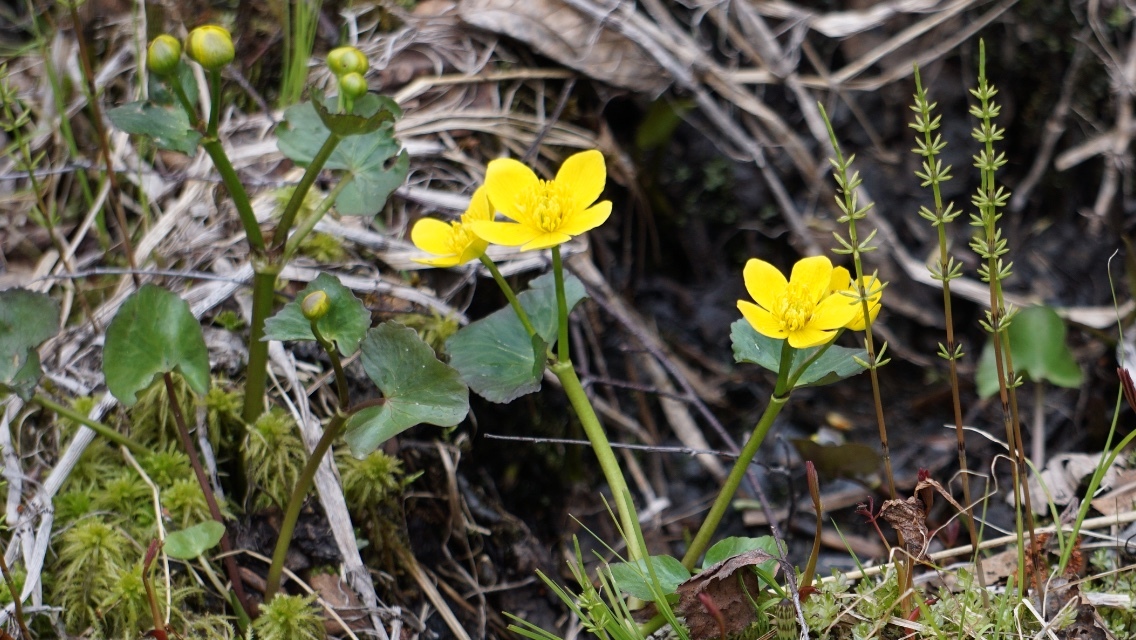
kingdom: Plantae
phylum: Tracheophyta
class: Magnoliopsida
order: Ranunculales
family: Ranunculaceae
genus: Caltha
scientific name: Caltha palustris
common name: Marsh marigold
